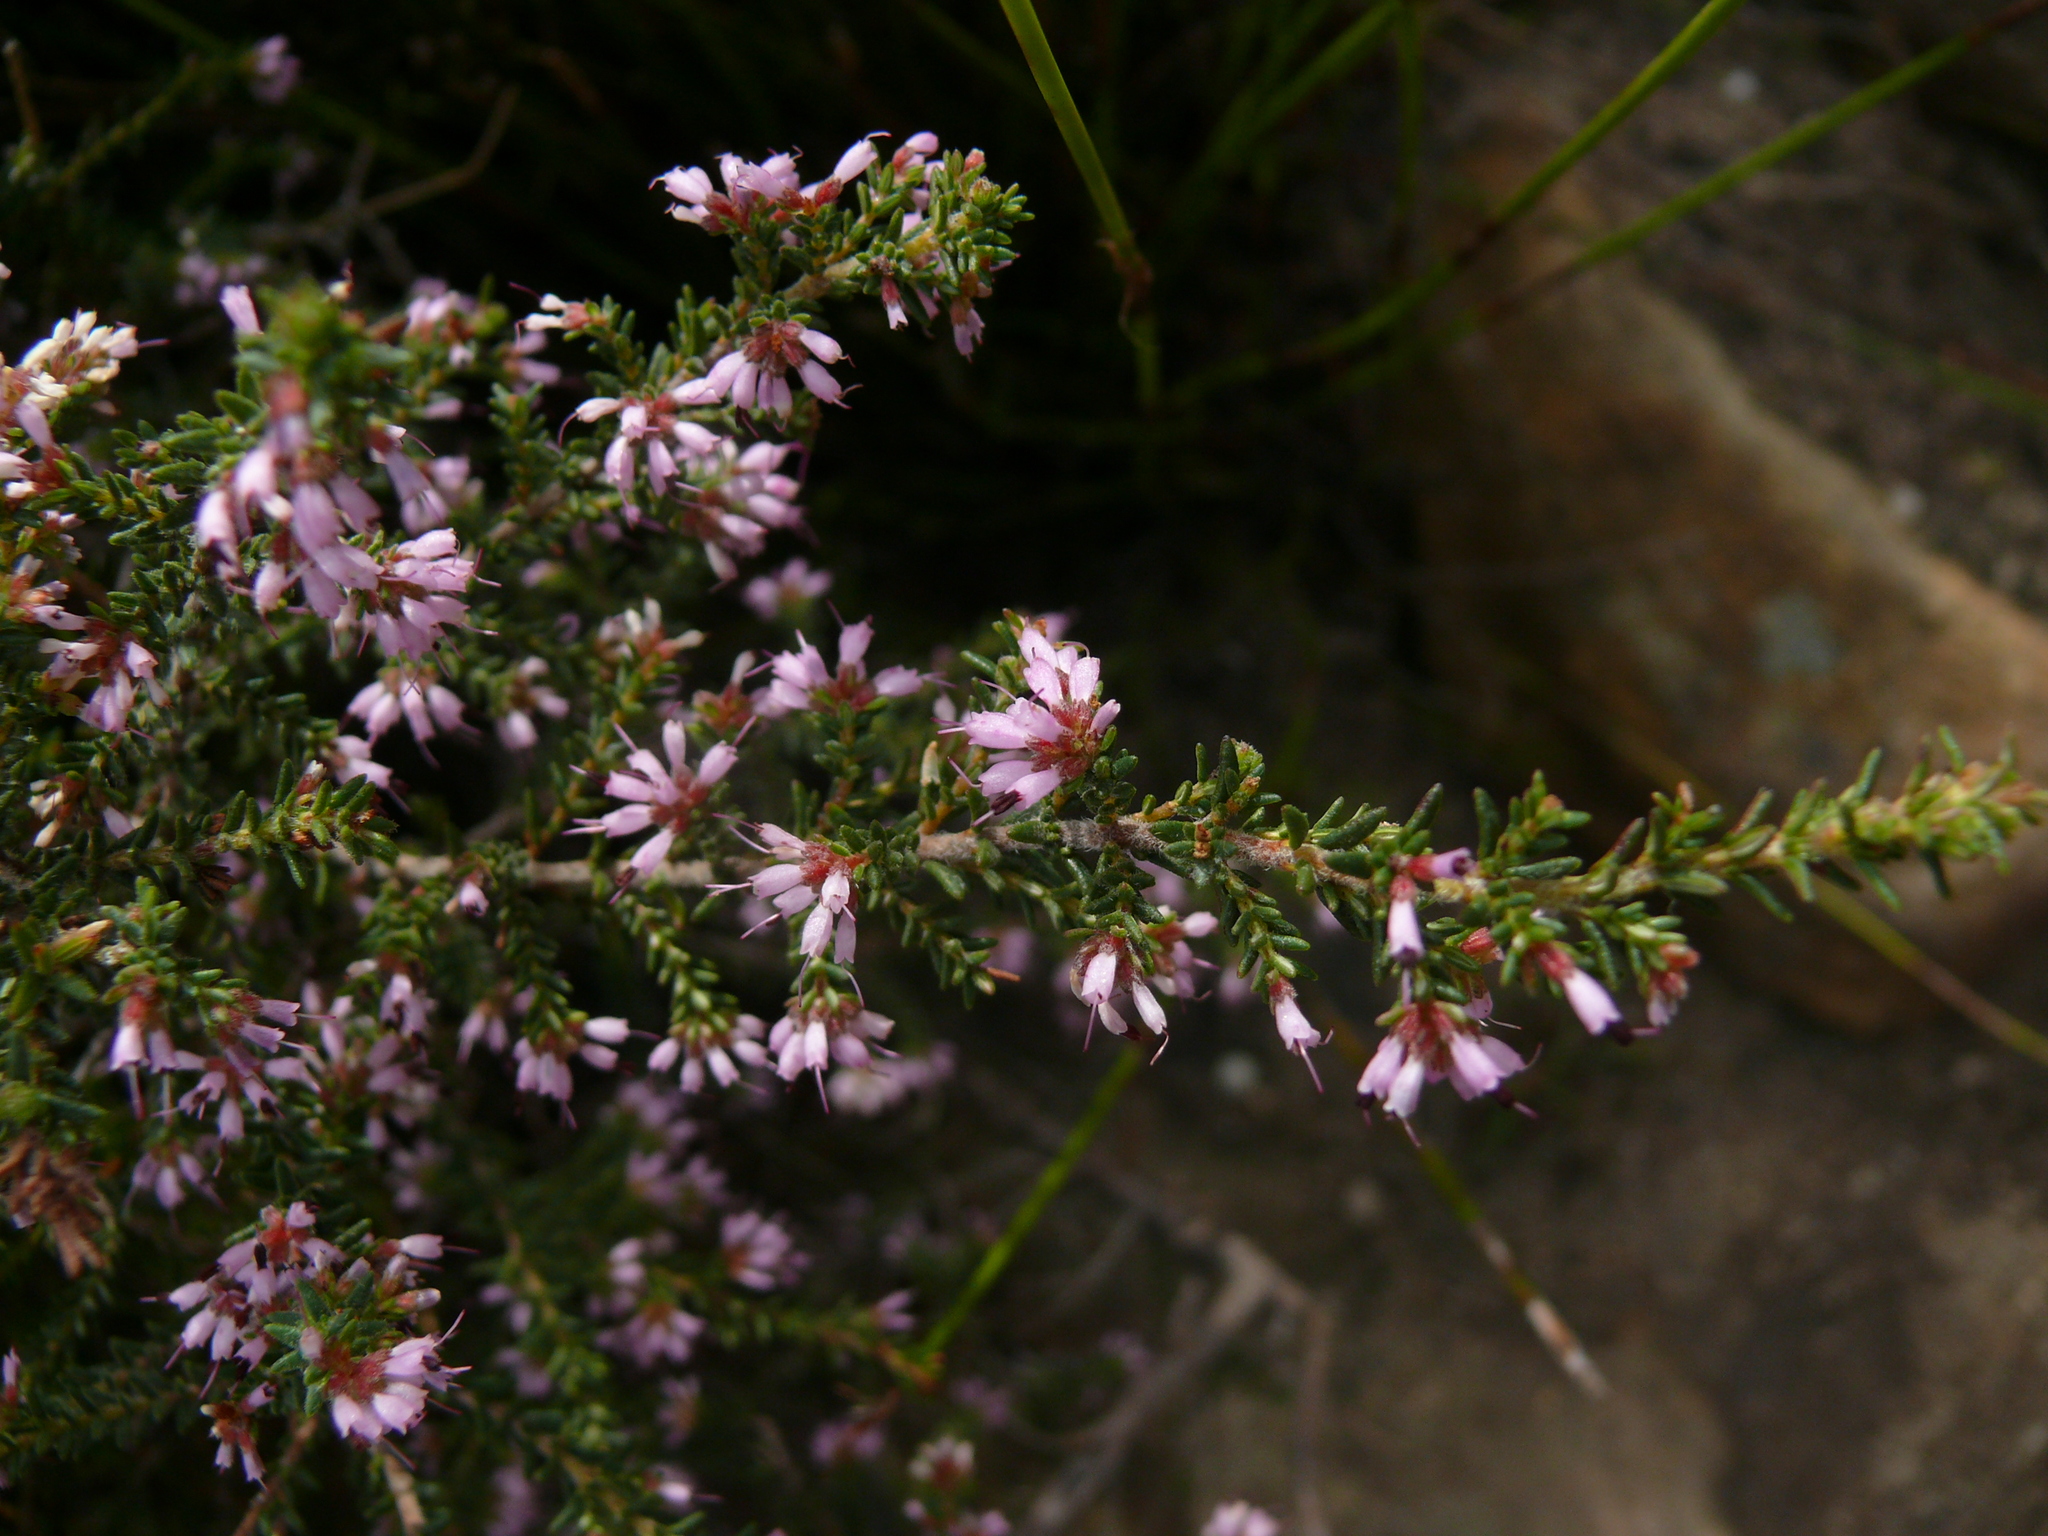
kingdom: Plantae
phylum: Tracheophyta
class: Magnoliopsida
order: Ericales
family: Ericaceae
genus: Erica
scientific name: Erica glabella
